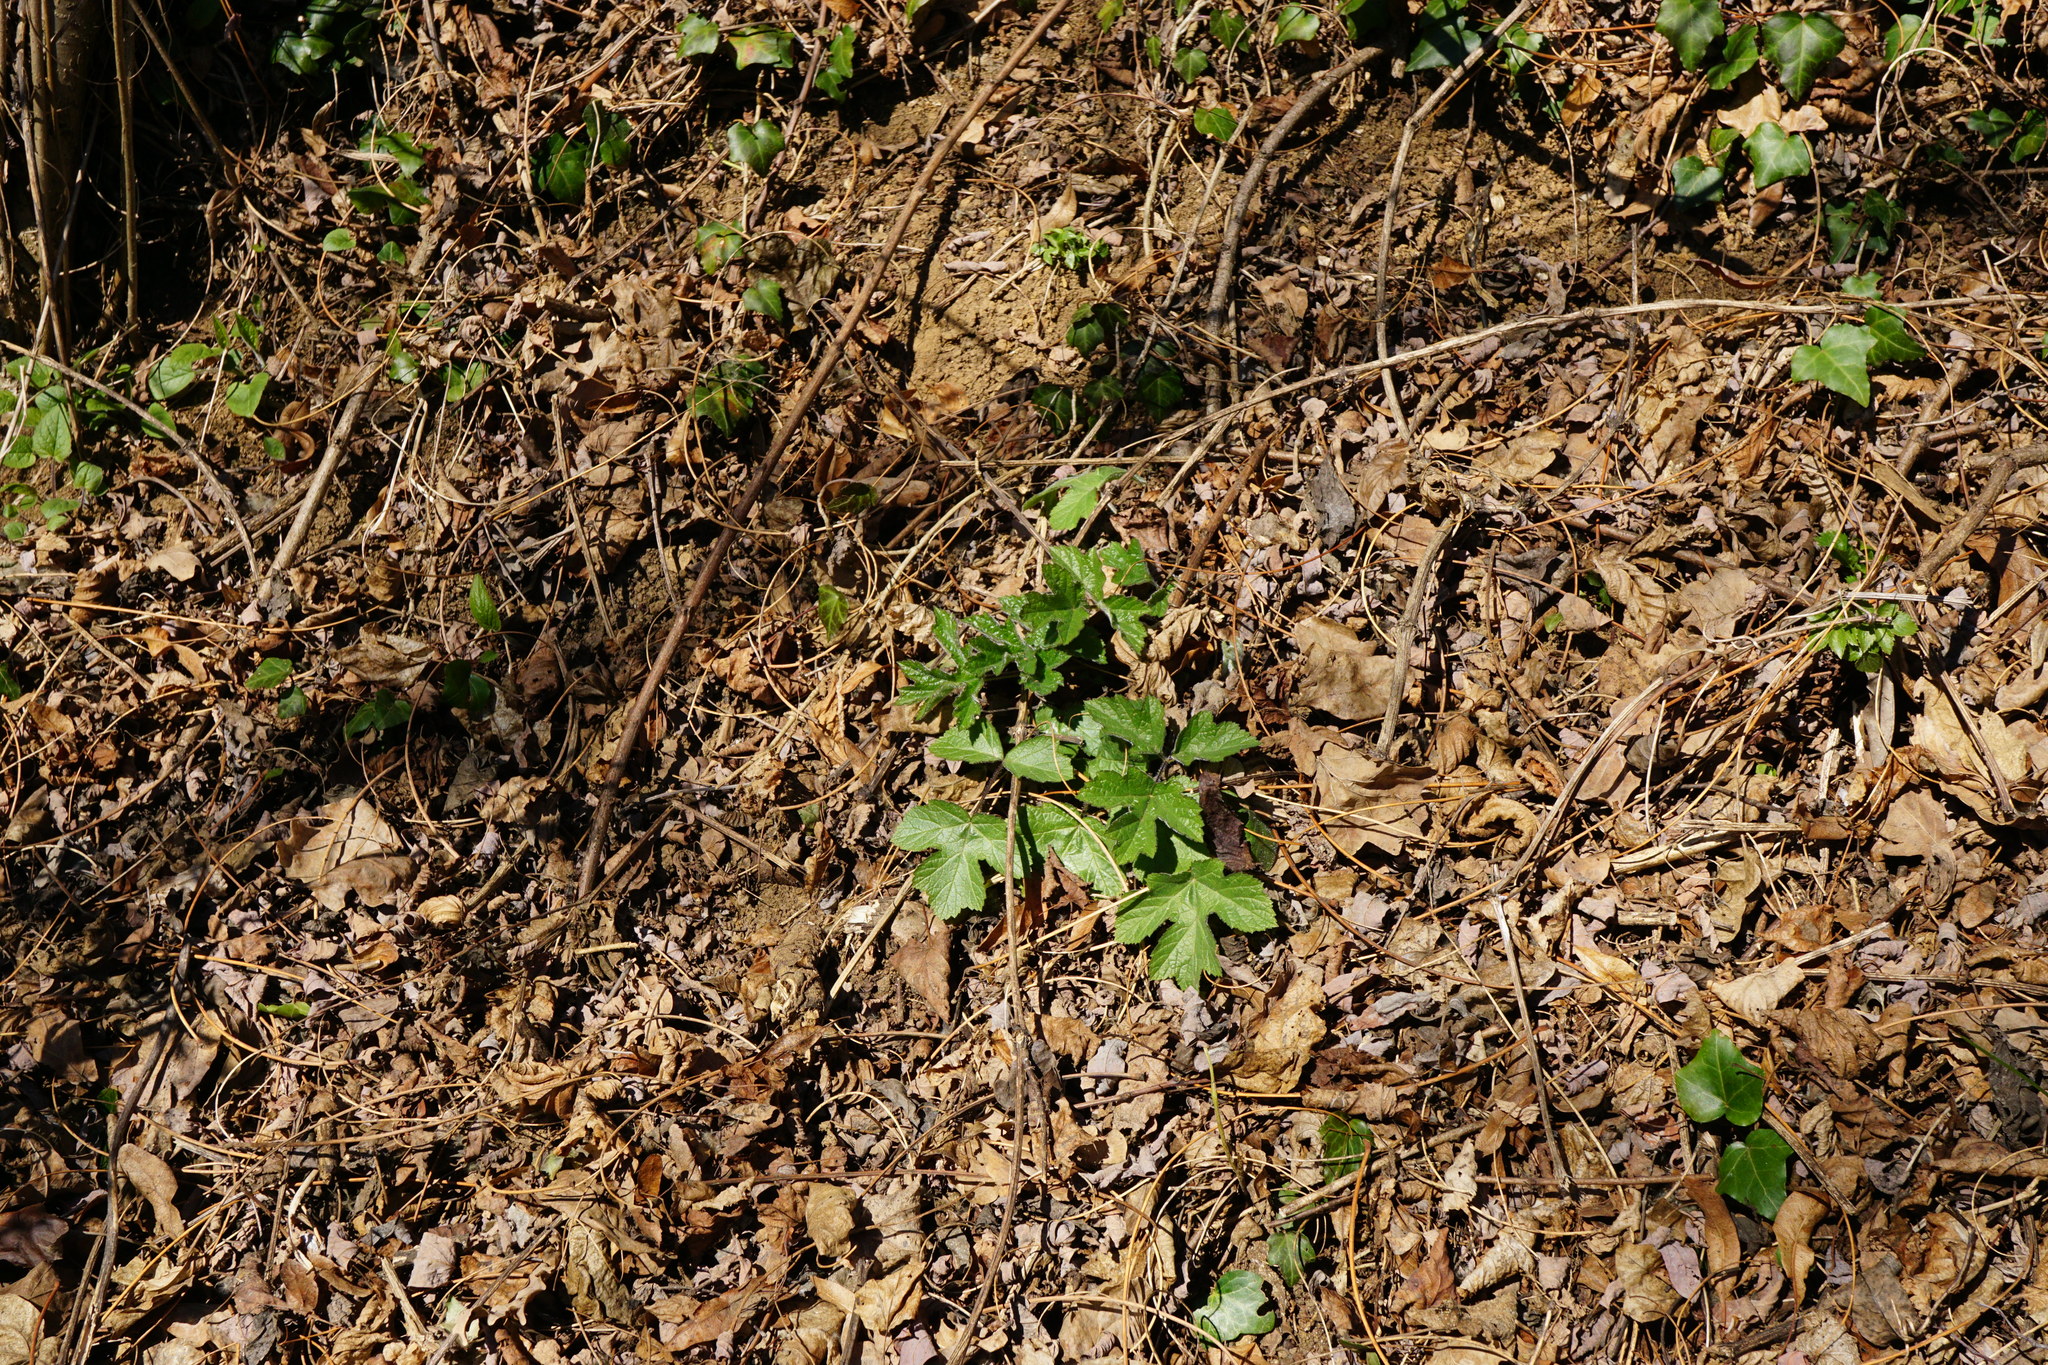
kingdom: Plantae
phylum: Tracheophyta
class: Magnoliopsida
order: Apiales
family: Apiaceae
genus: Heracleum
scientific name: Heracleum sphondylium
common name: Hogweed
